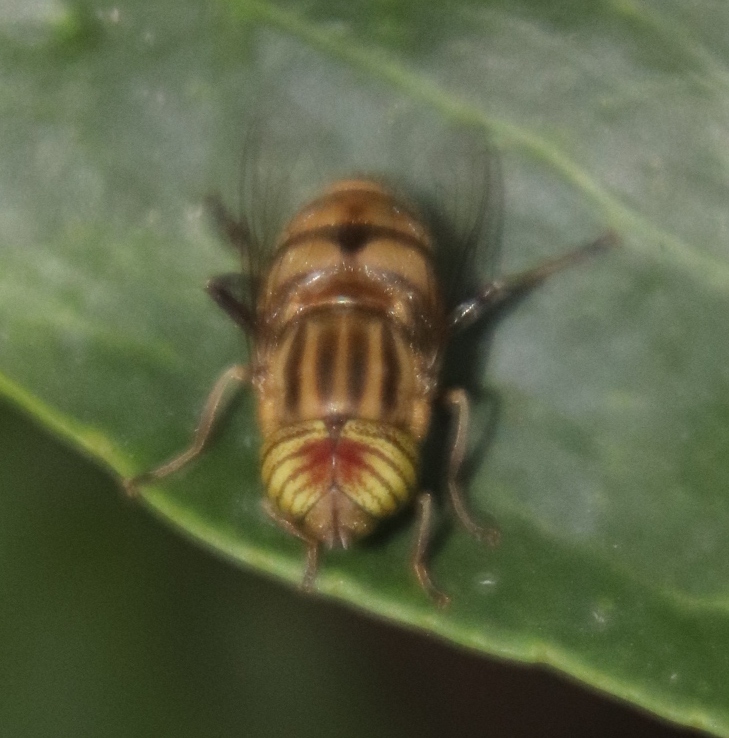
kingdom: Animalia
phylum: Arthropoda
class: Insecta
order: Diptera
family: Syrphidae
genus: Eristalinus
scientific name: Eristalinus barclayi
